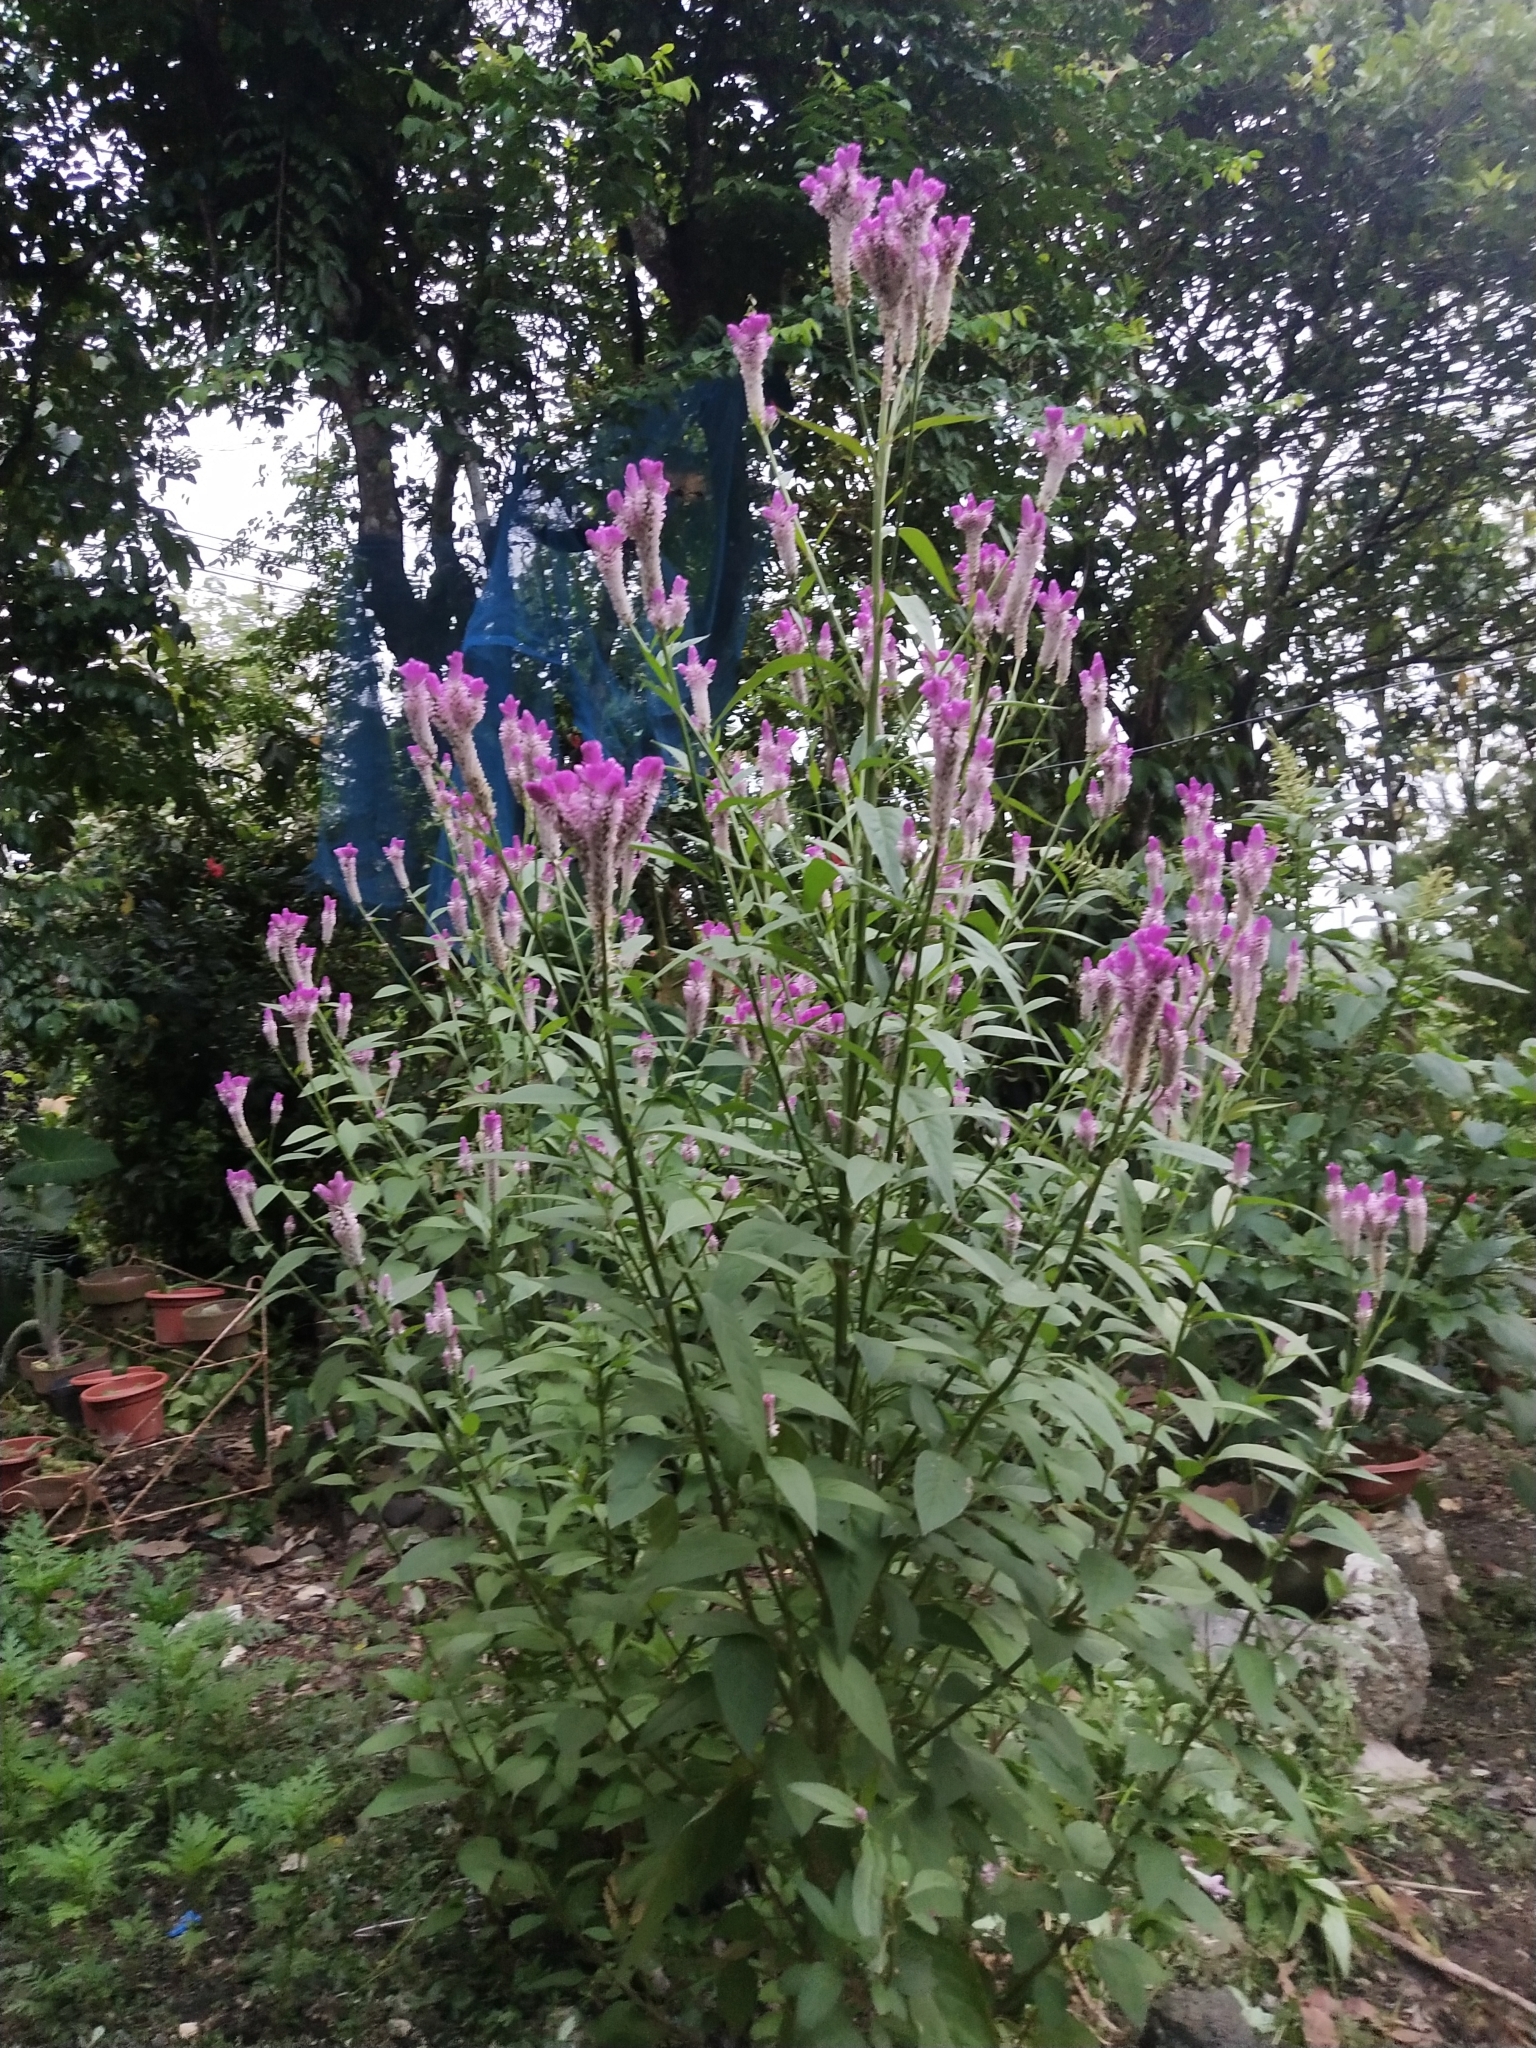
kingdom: Plantae
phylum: Tracheophyta
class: Magnoliopsida
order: Caryophyllales
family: Amaranthaceae
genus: Celosia
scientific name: Celosia argentea
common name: Feather cockscomb
